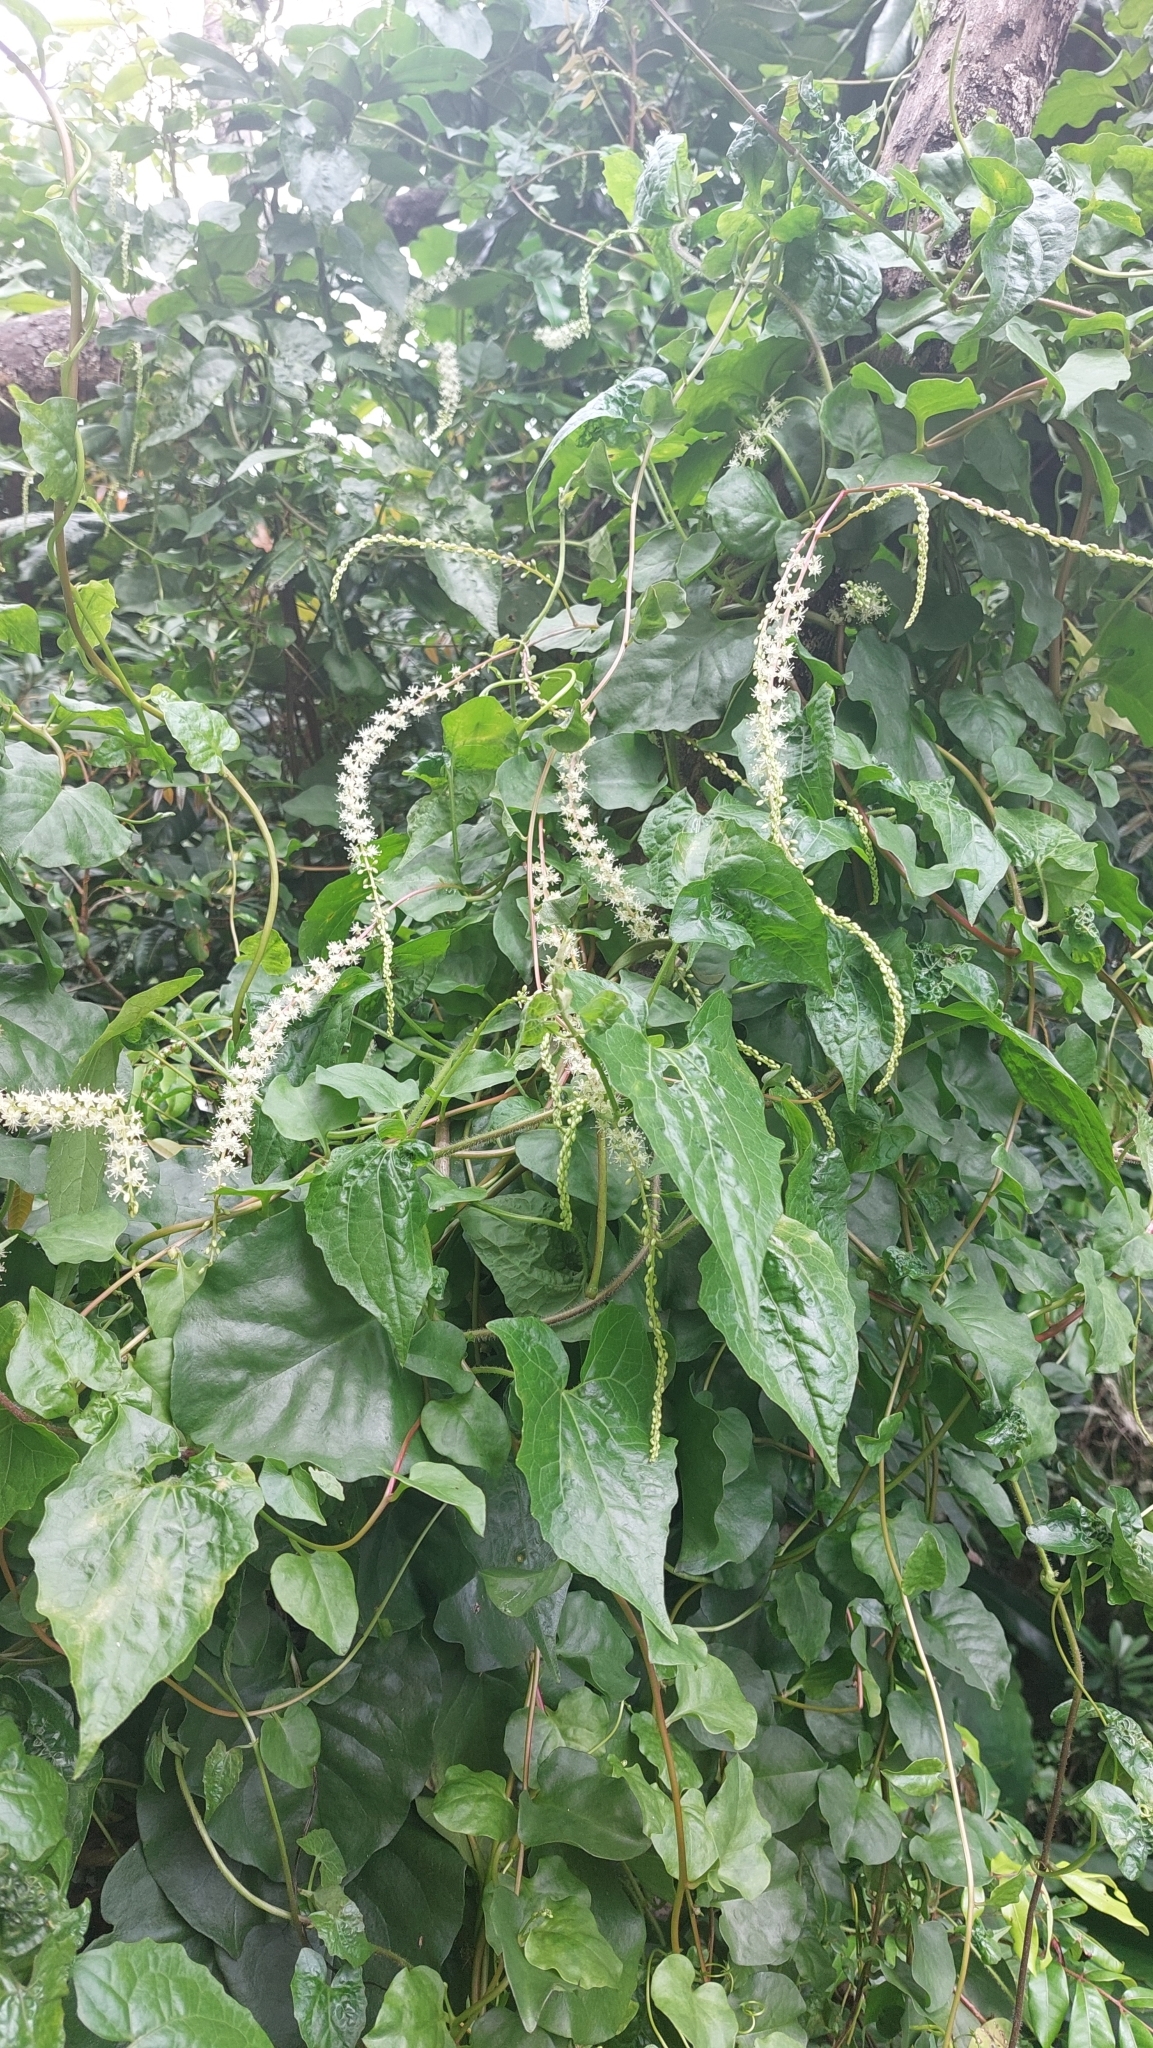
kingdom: Plantae
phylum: Tracheophyta
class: Magnoliopsida
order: Caryophyllales
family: Basellaceae
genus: Anredera
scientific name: Anredera cordifolia
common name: Heartleaf madeiravine
